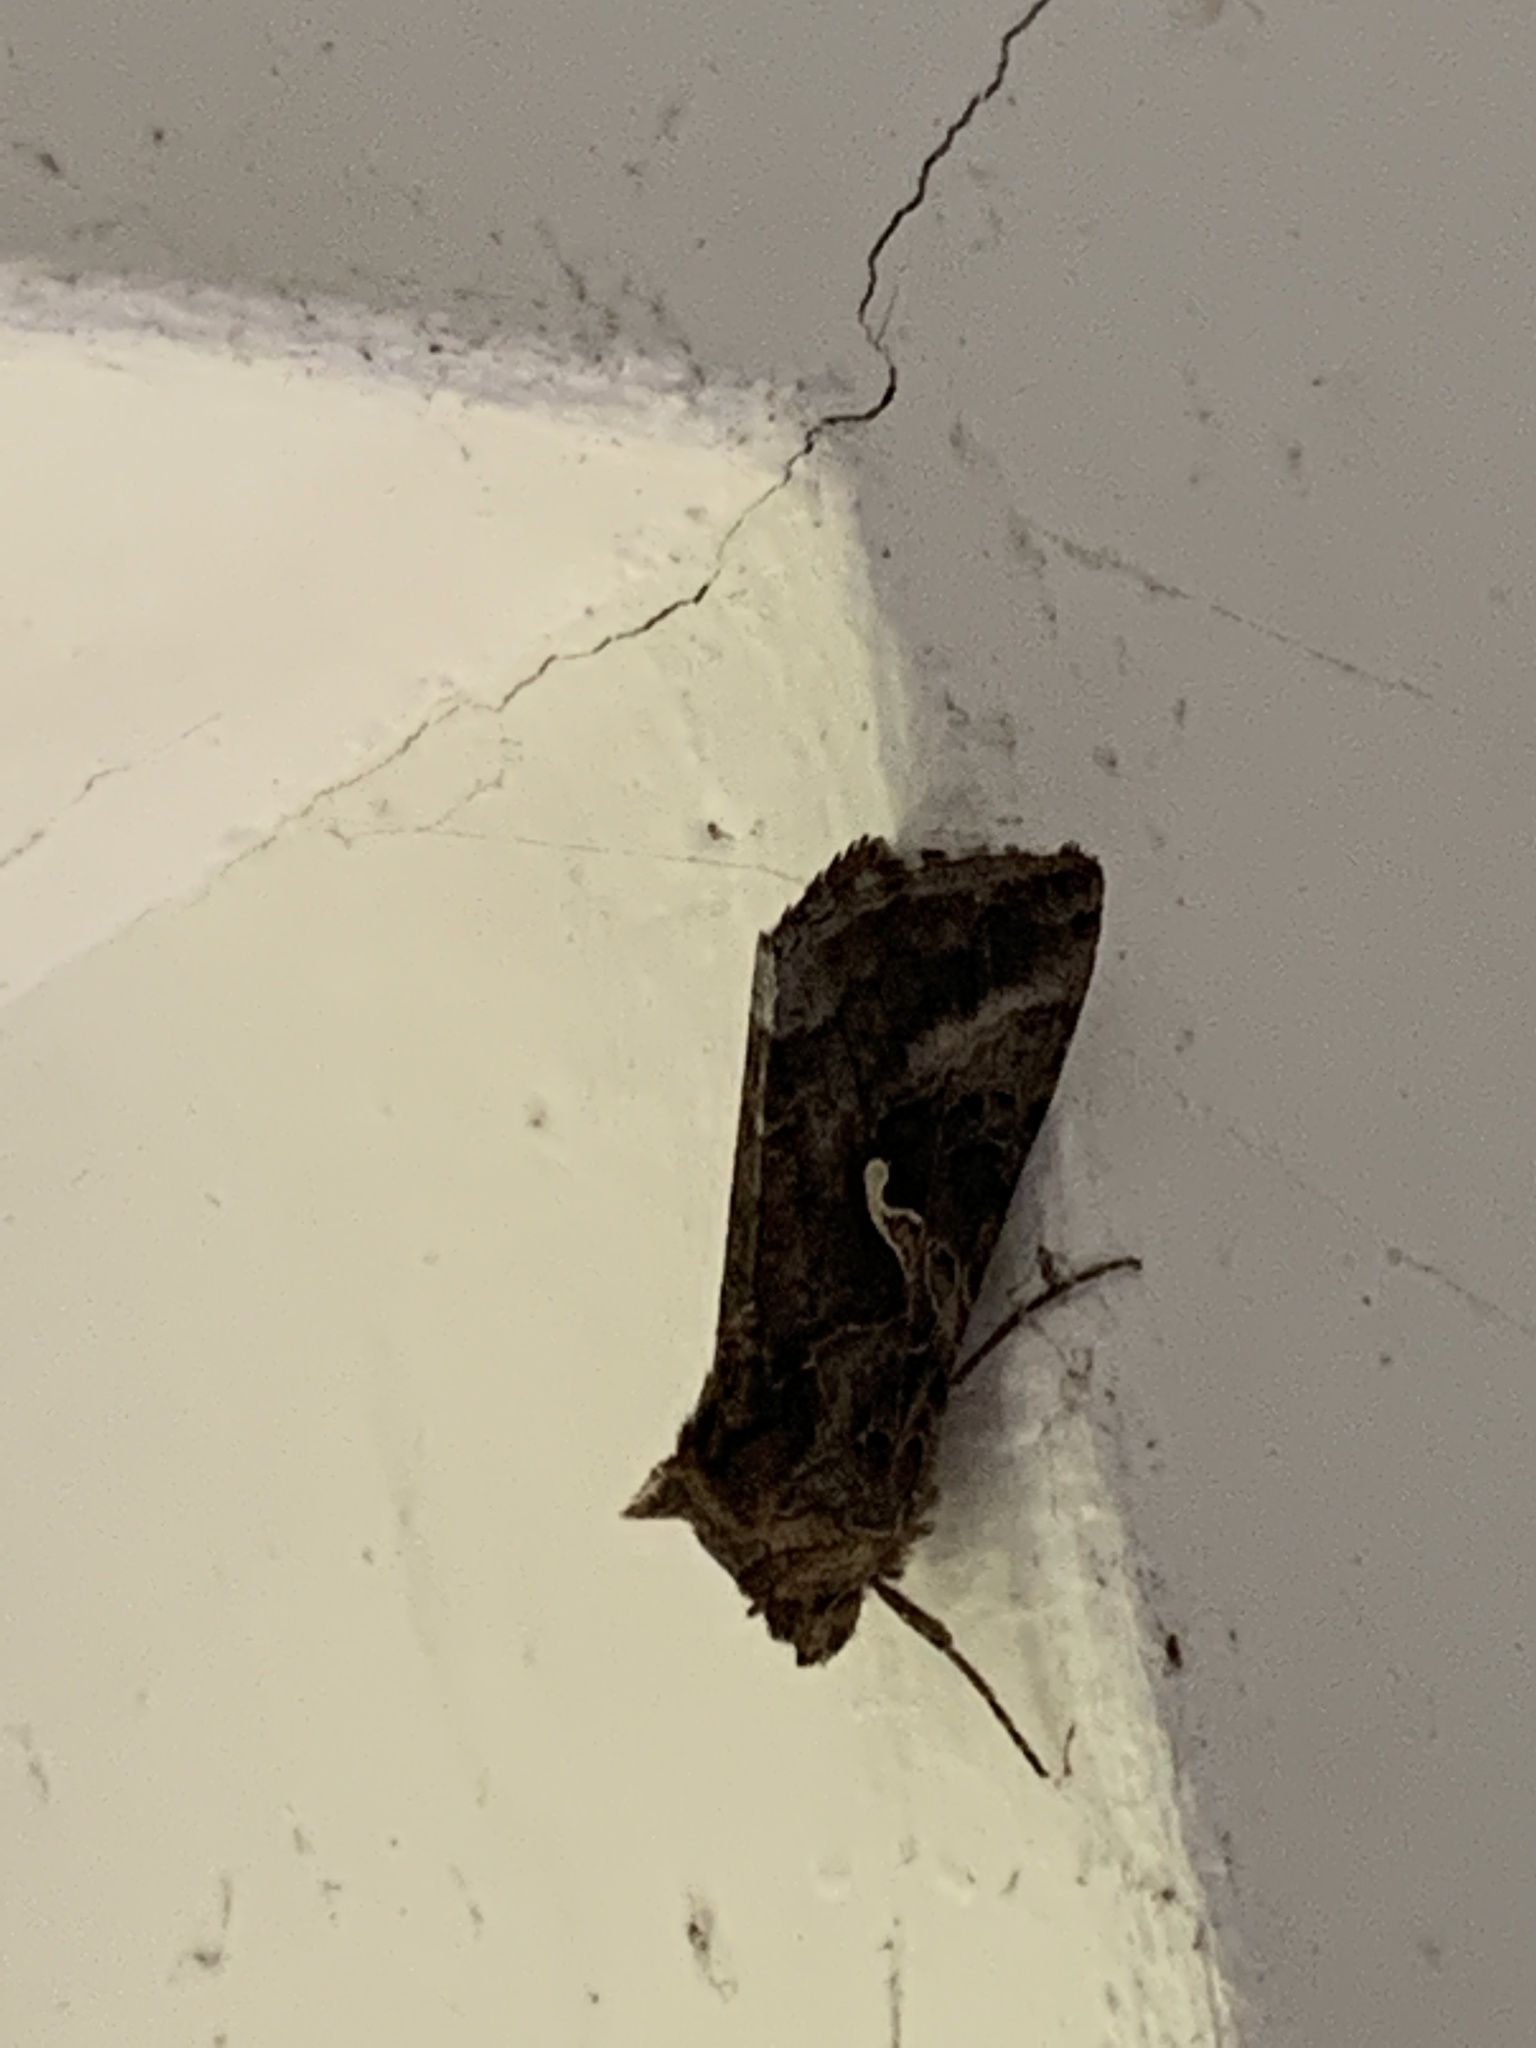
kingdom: Animalia
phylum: Arthropoda
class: Insecta
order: Lepidoptera
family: Noctuidae
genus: Autographa
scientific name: Autographa gamma
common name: Silver y
